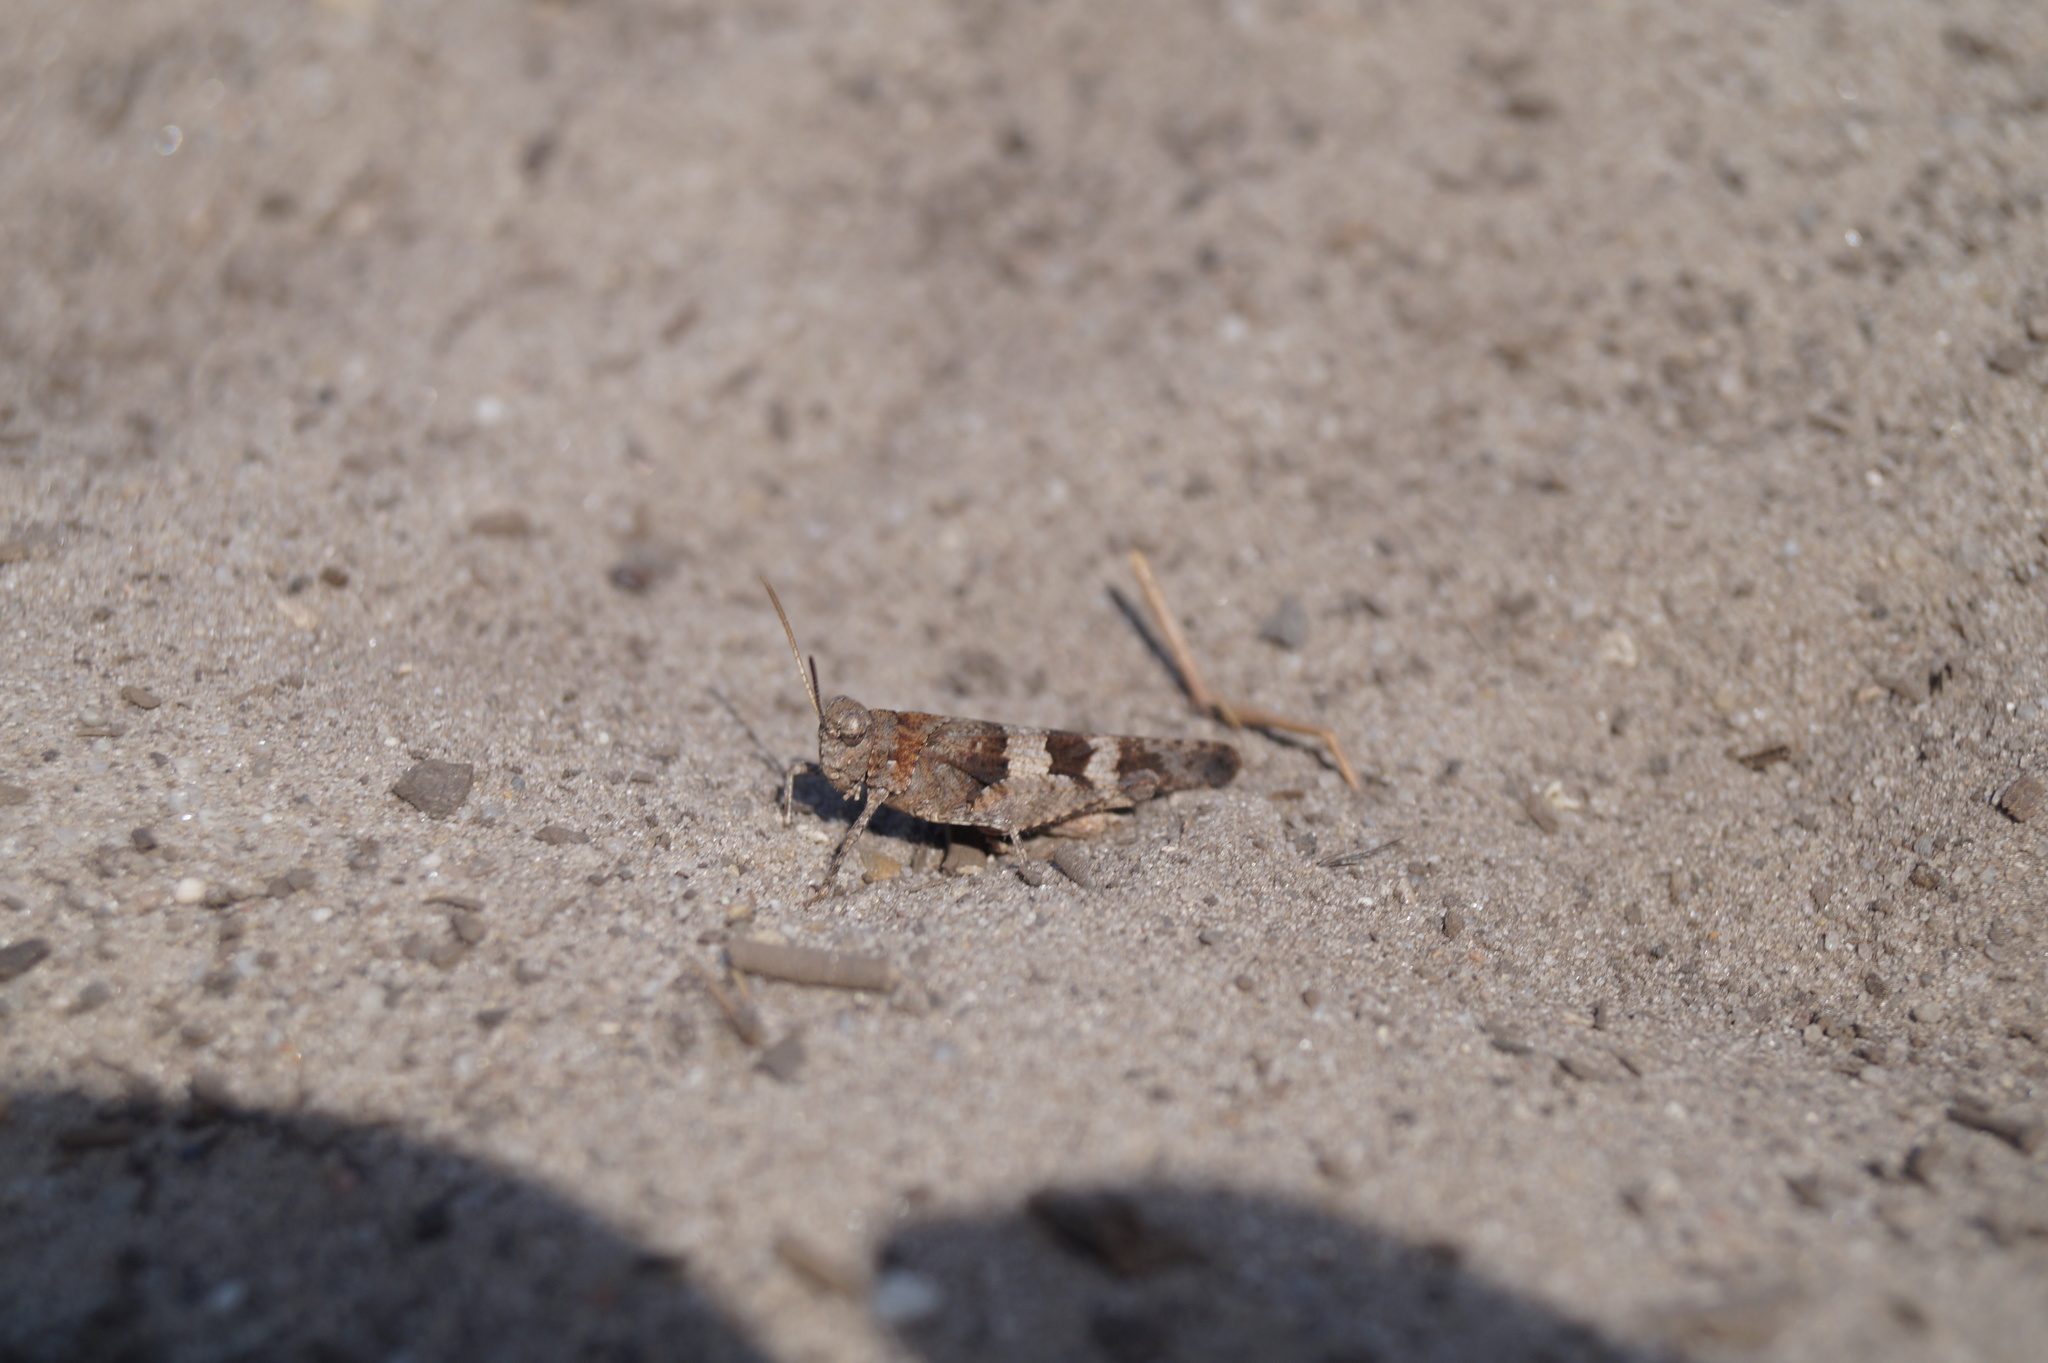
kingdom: Animalia
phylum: Arthropoda
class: Insecta
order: Orthoptera
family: Acrididae
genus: Oedipoda
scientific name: Oedipoda caerulescens
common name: Blue-winged grasshopper
